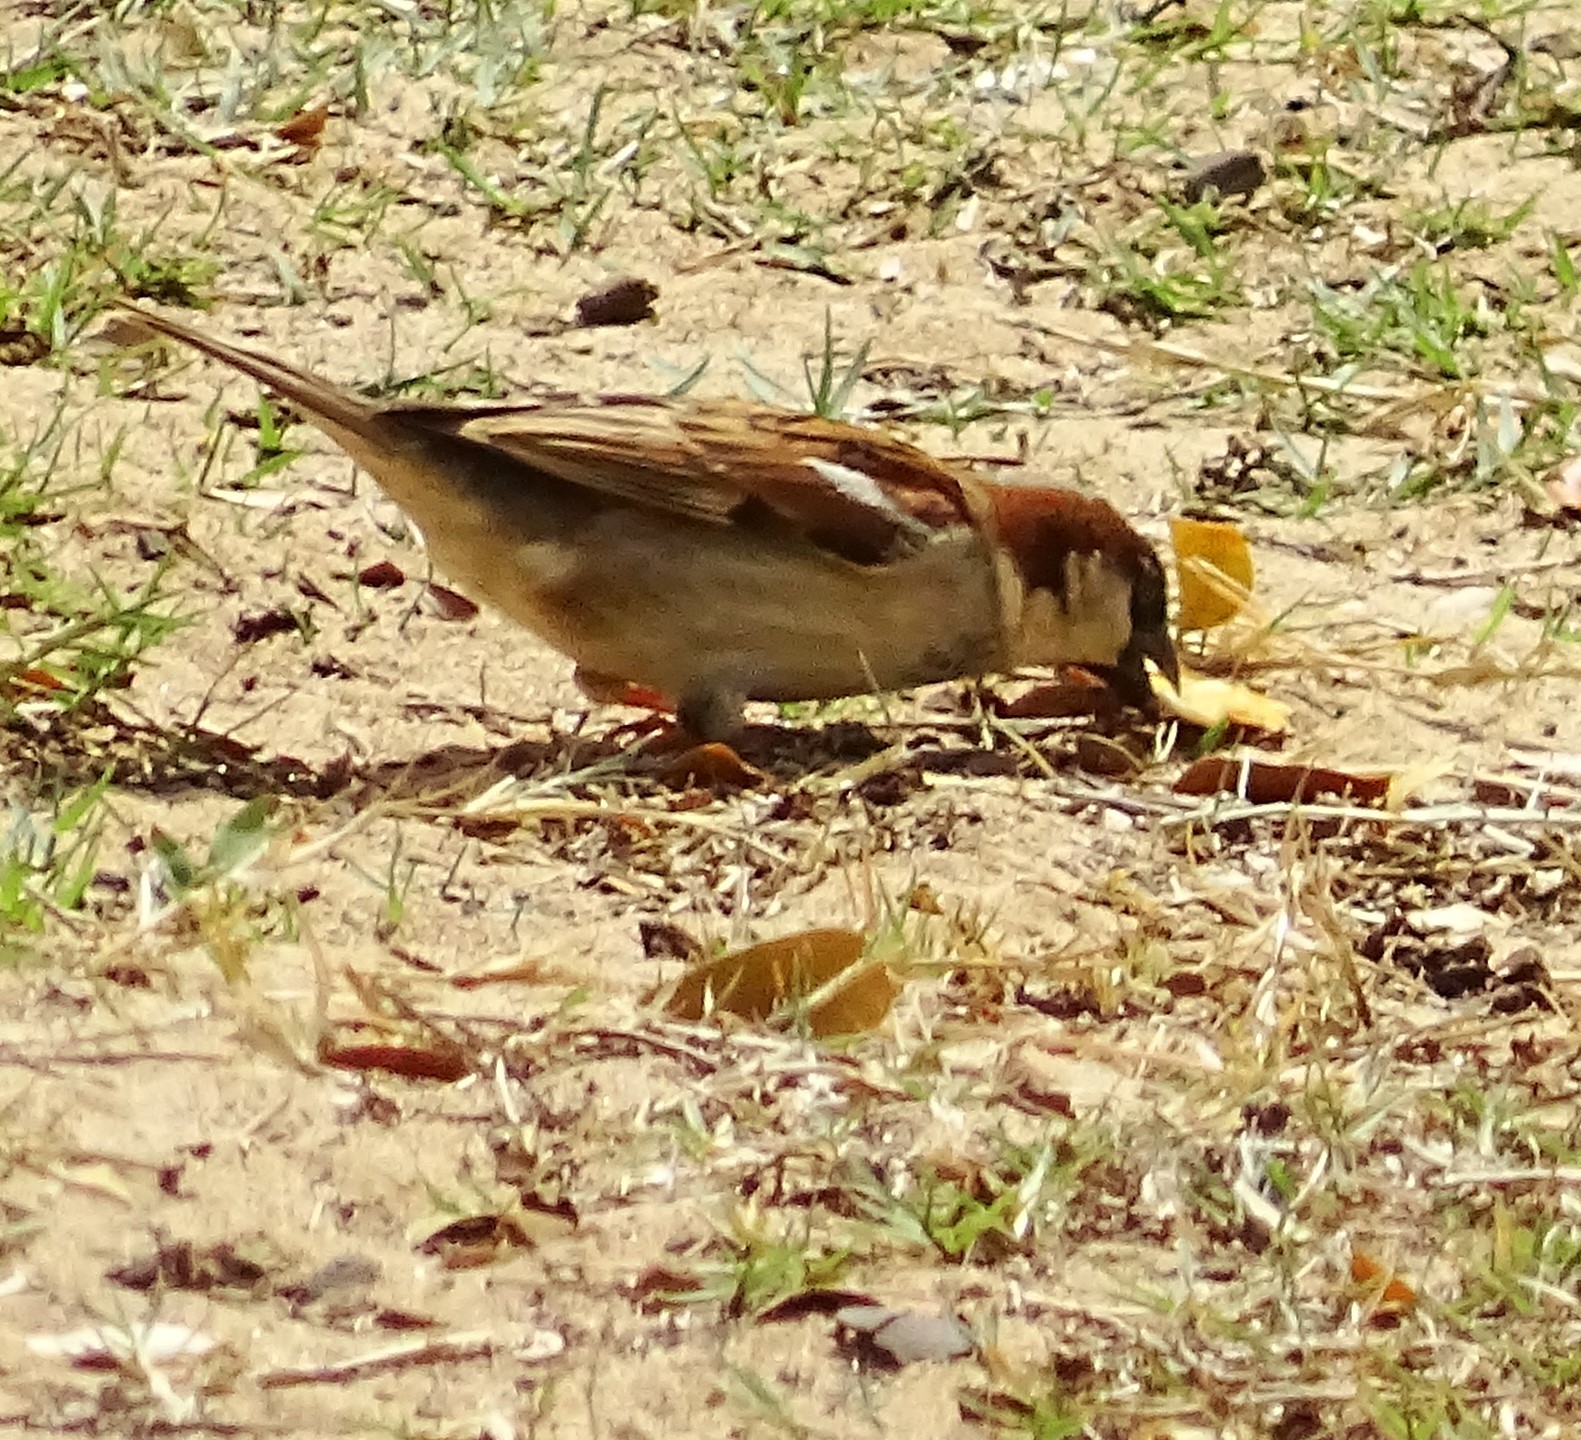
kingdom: Animalia
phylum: Chordata
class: Aves
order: Passeriformes
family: Passeridae
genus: Passer
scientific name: Passer domesticus
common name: House sparrow
